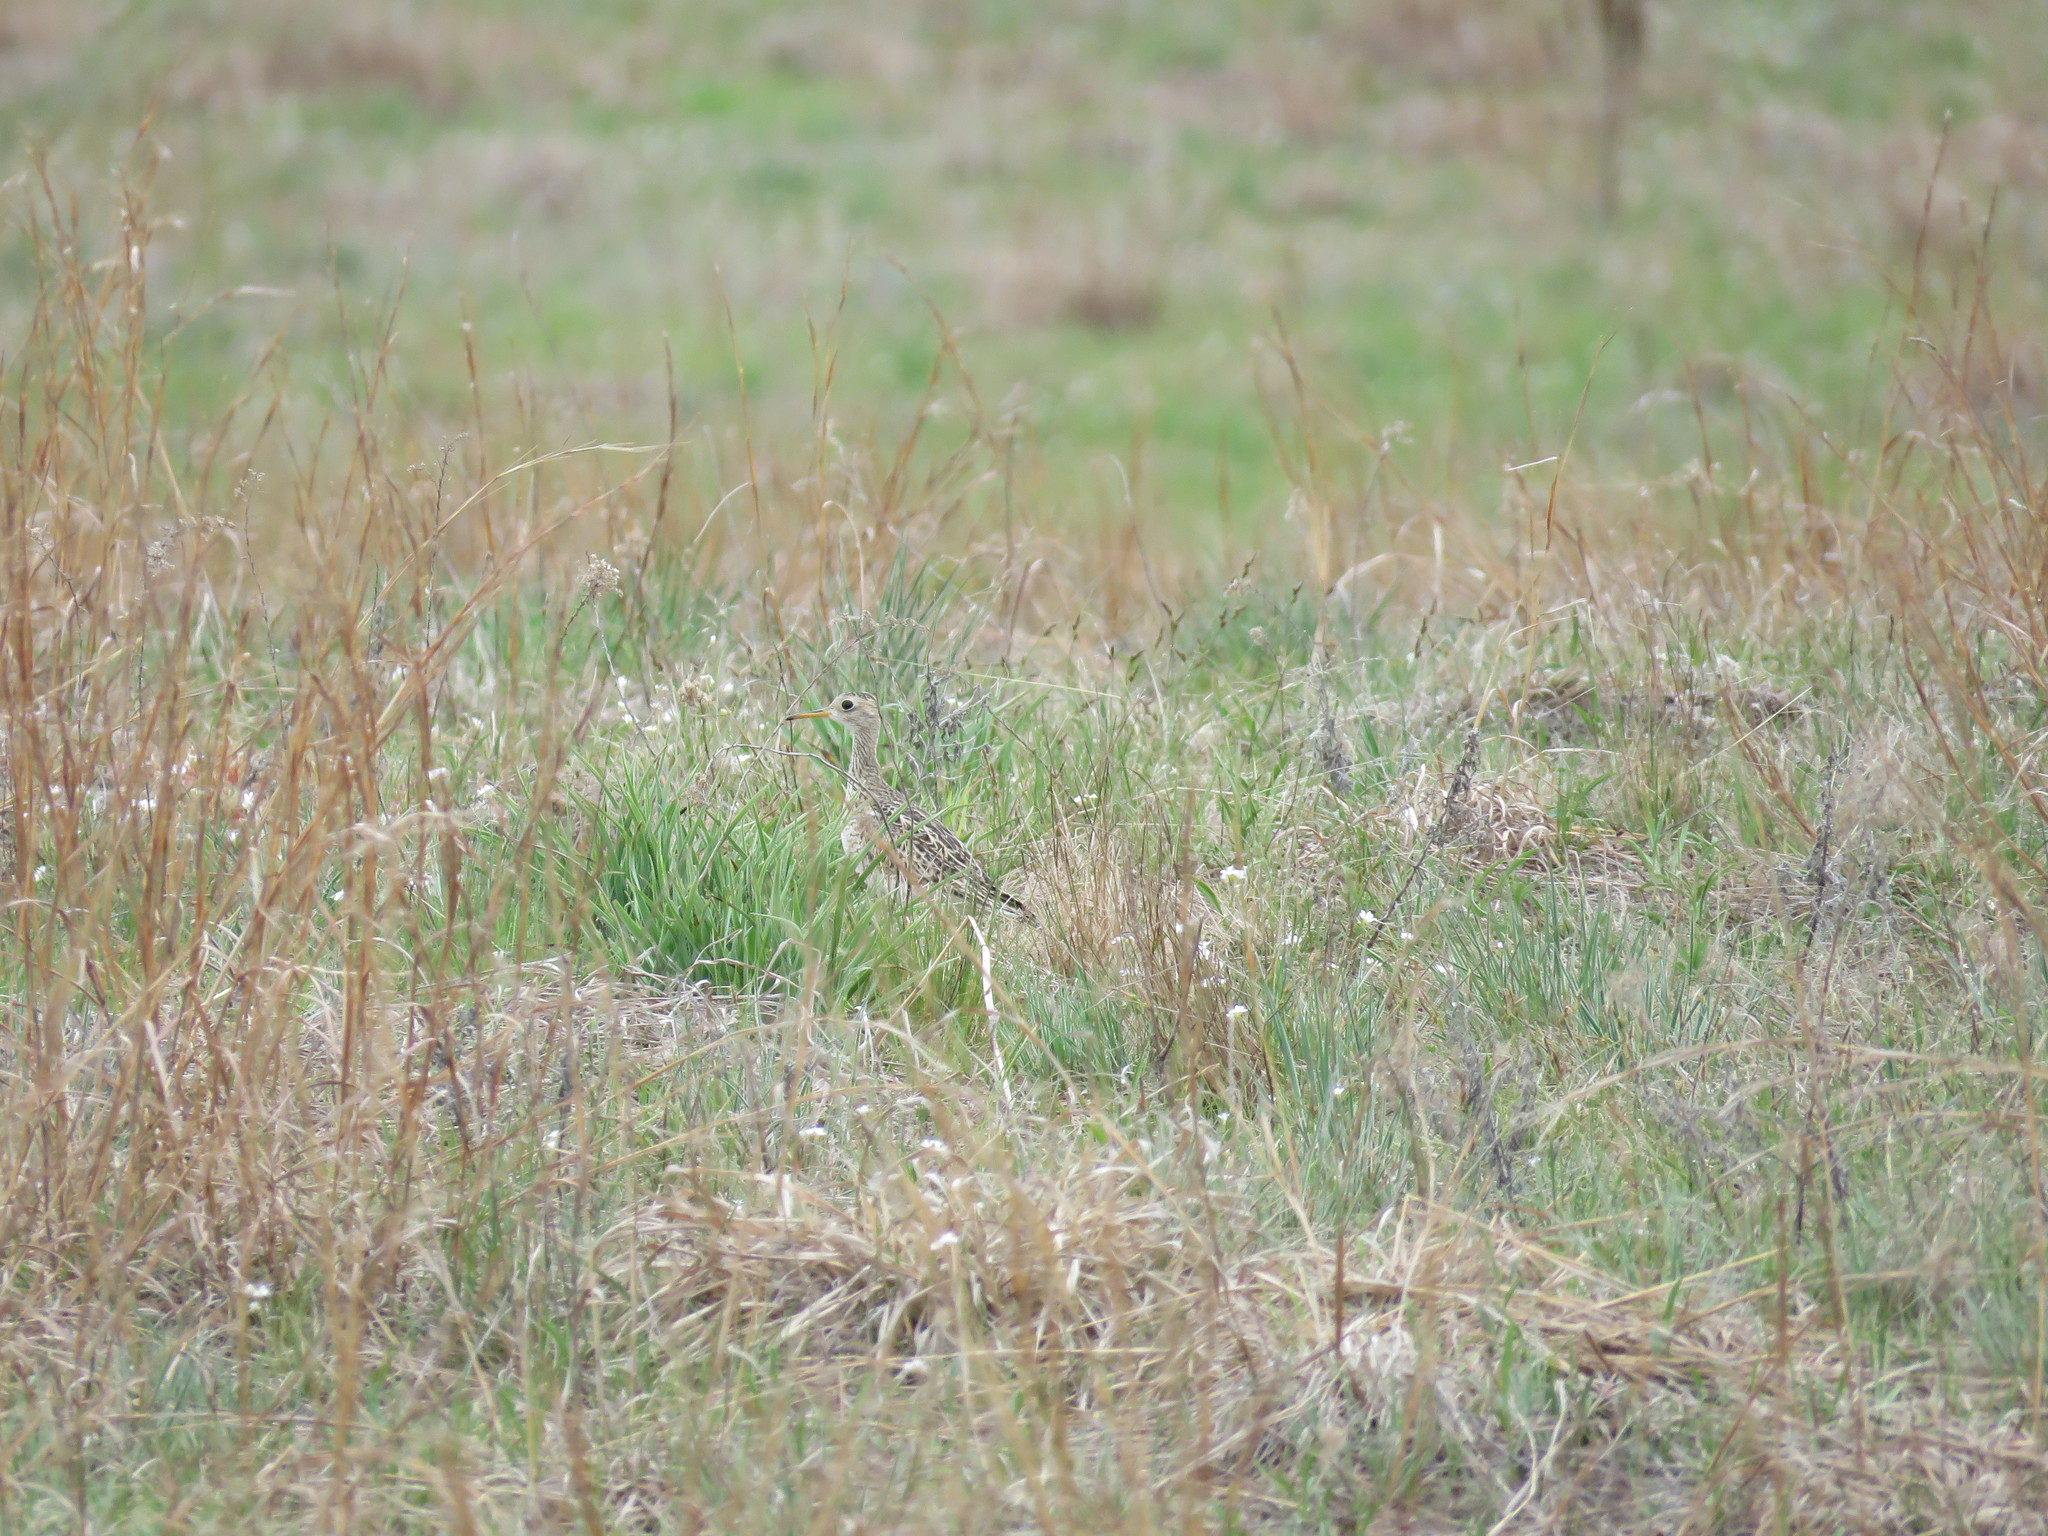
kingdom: Animalia
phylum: Chordata
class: Aves
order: Charadriiformes
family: Scolopacidae
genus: Bartramia
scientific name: Bartramia longicauda
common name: Upland sandpiper
